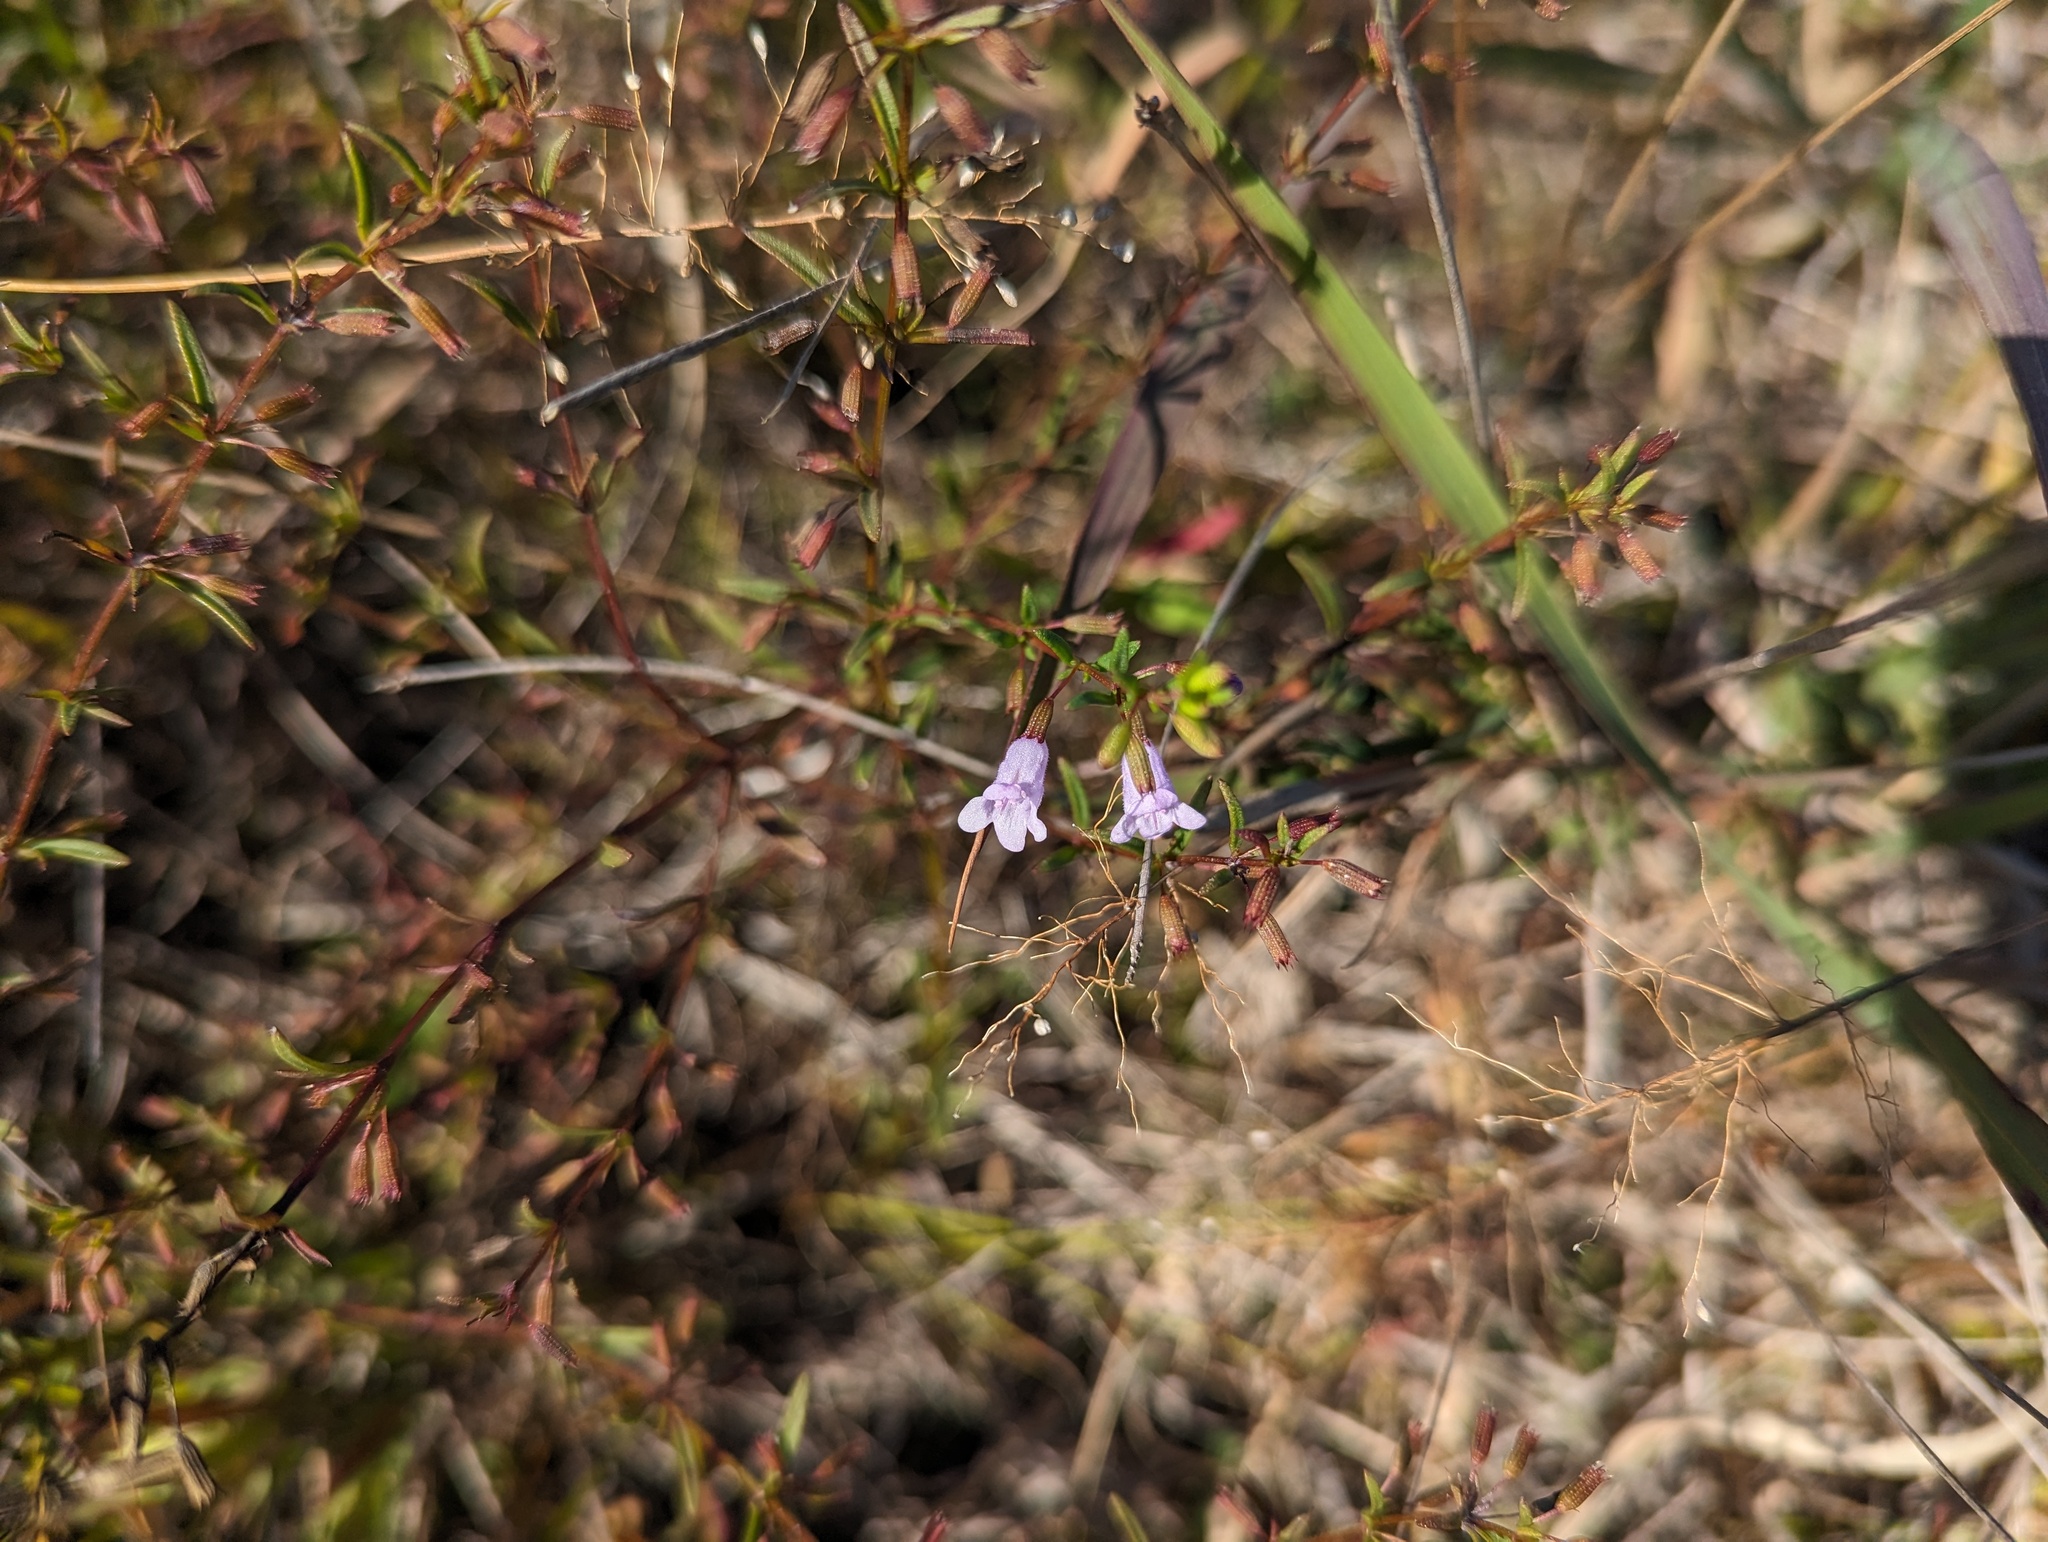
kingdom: Plantae
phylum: Tracheophyta
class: Magnoliopsida
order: Lamiales
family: Lamiaceae
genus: Clinopodium
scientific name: Clinopodium arkansanum
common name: Limestone calamint
